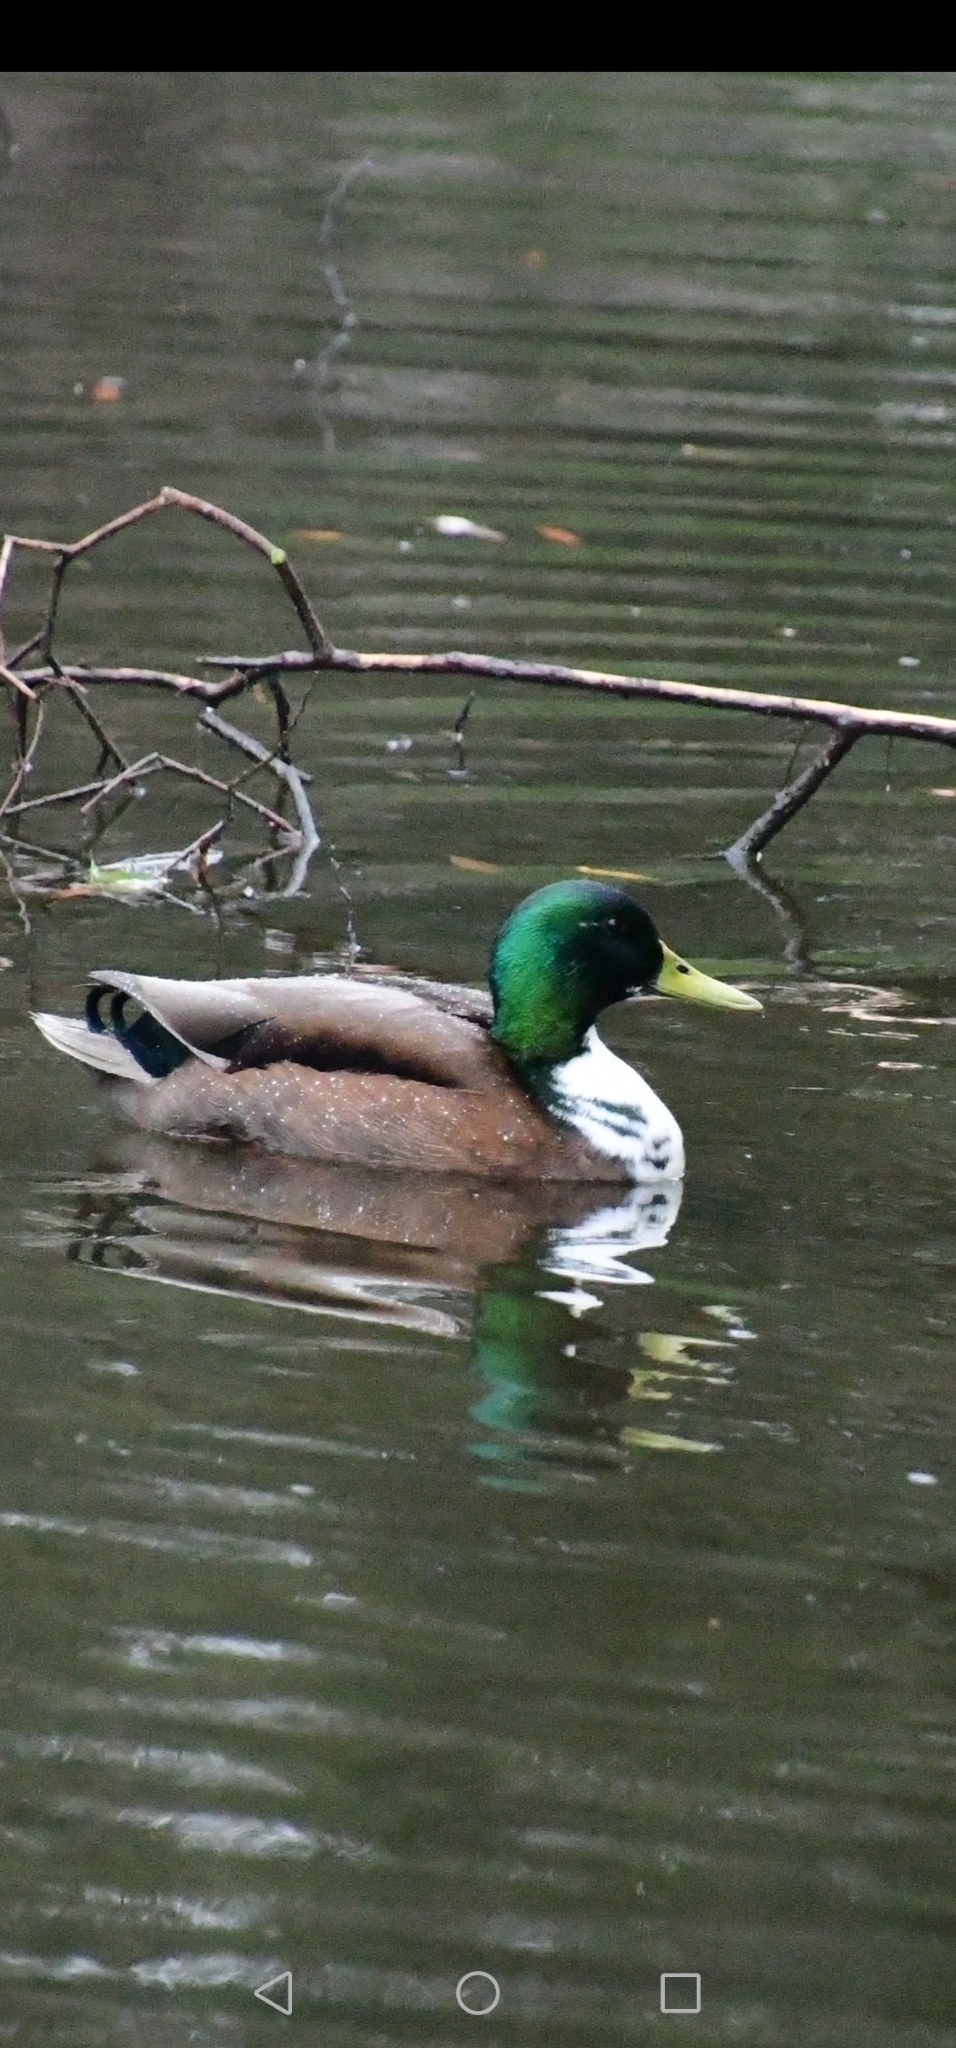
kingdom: Animalia
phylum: Chordata
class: Aves
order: Anseriformes
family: Anatidae
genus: Anas
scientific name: Anas platyrhynchos
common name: Mallard
